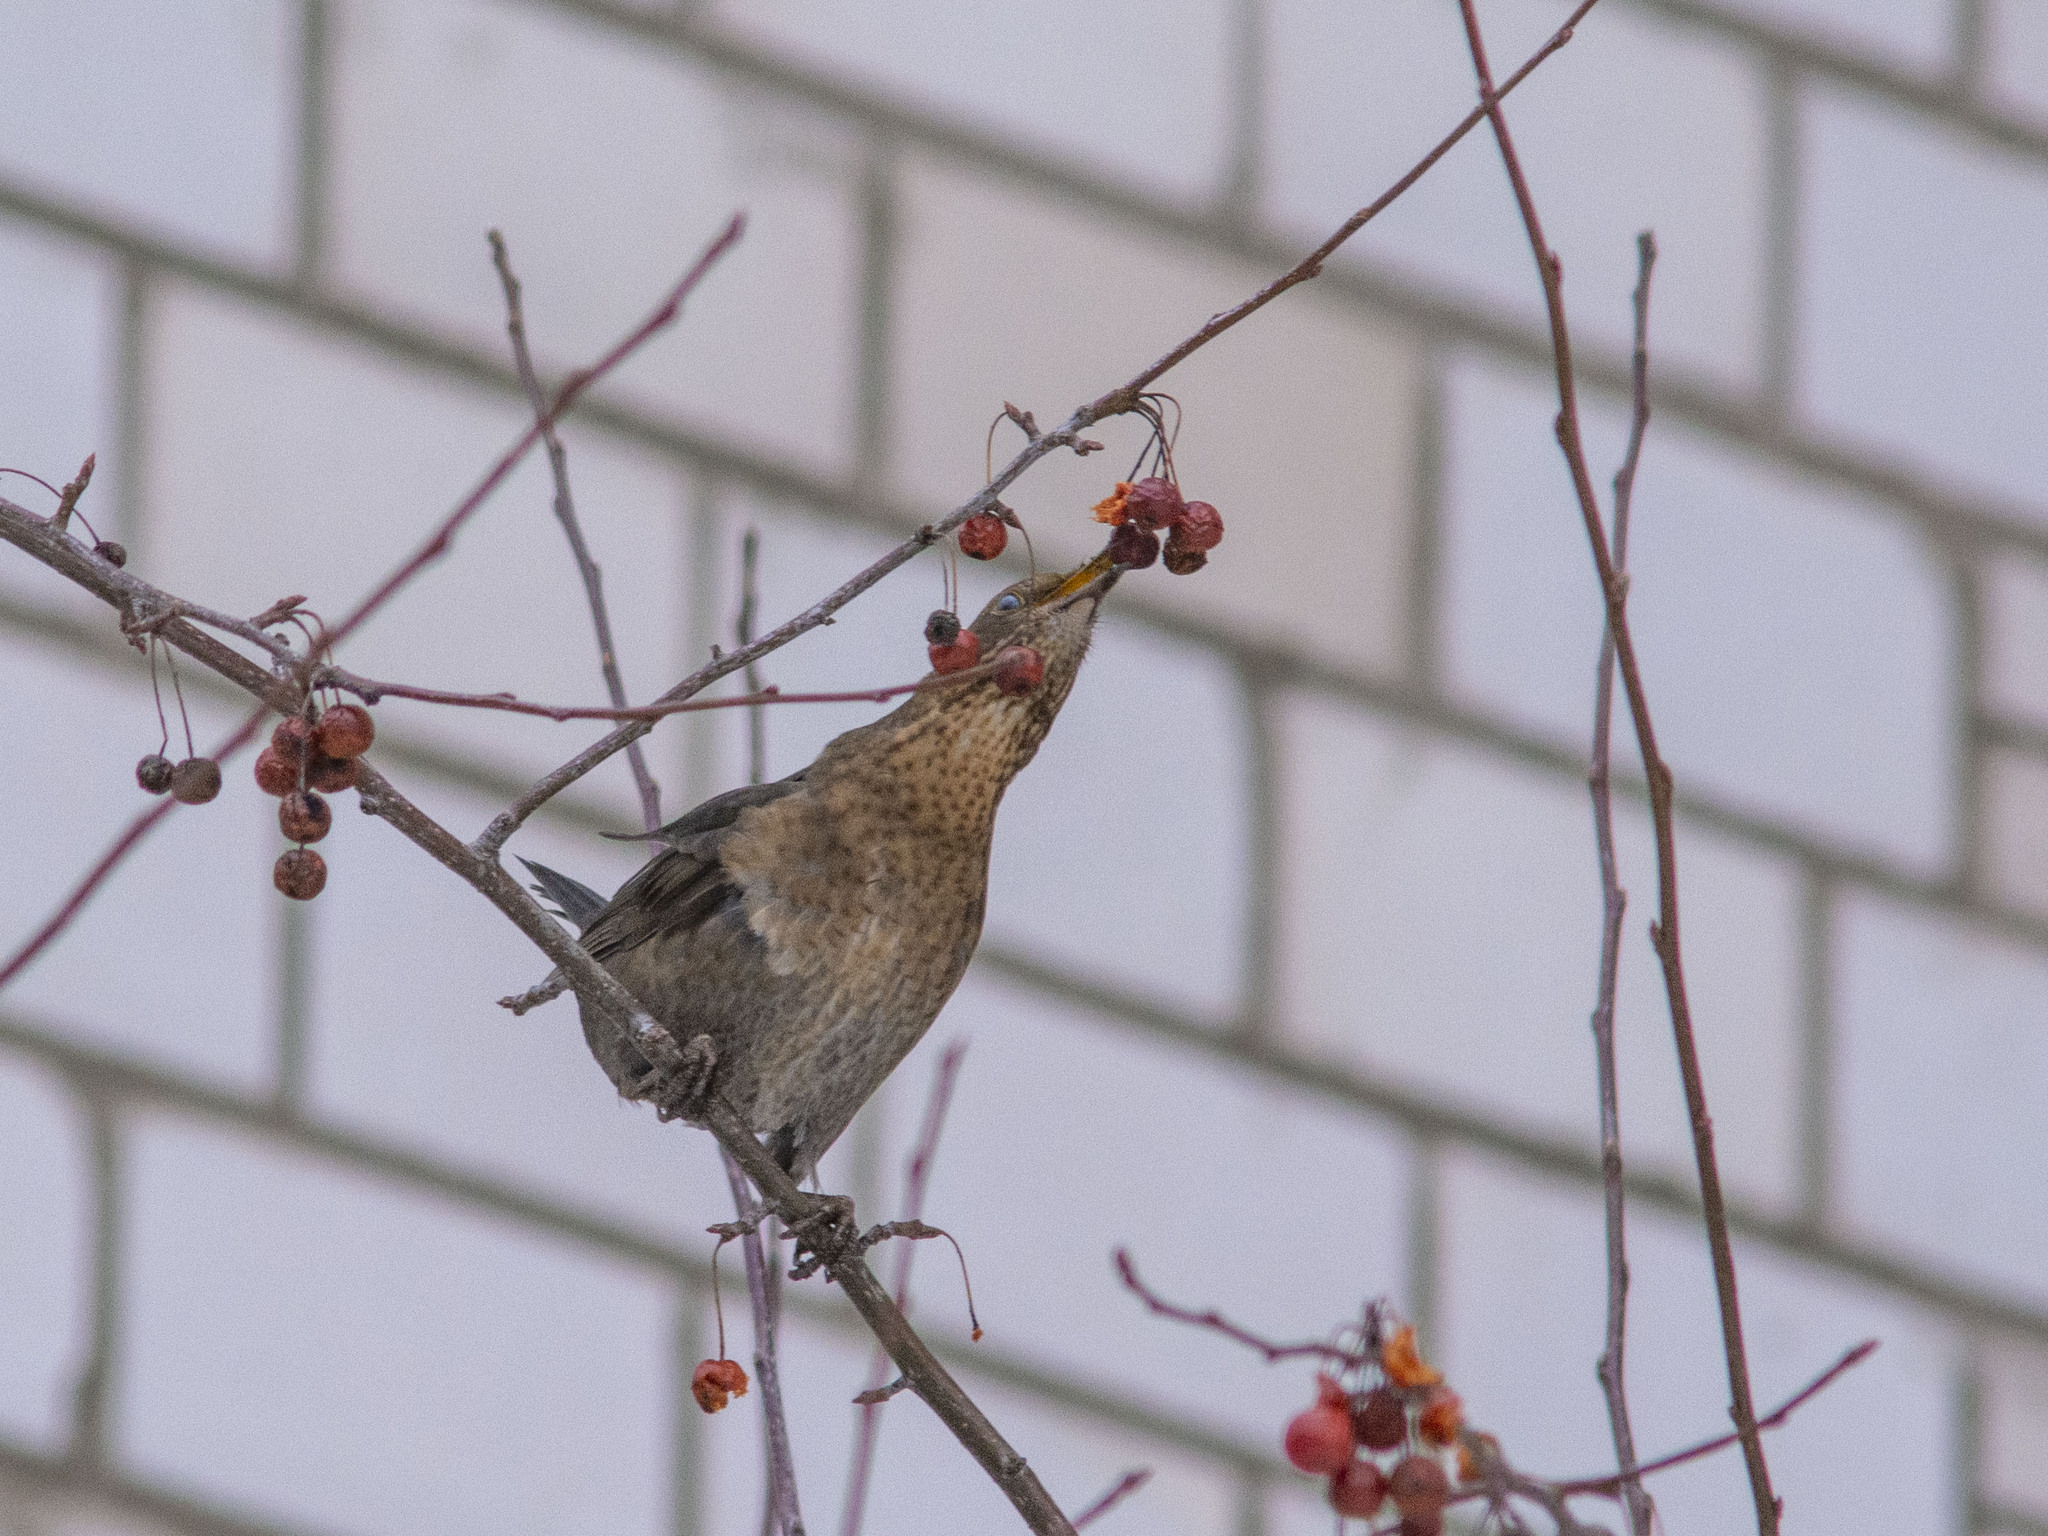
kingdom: Animalia
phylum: Chordata
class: Aves
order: Passeriformes
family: Turdidae
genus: Turdus
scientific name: Turdus merula
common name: Common blackbird
